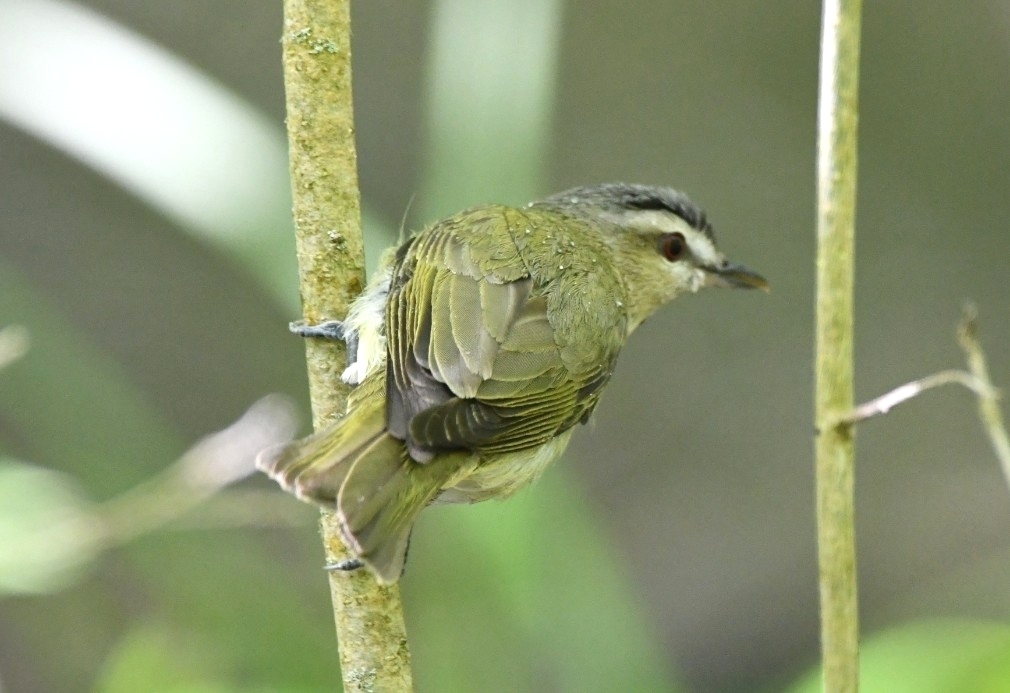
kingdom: Animalia
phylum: Chordata
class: Aves
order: Passeriformes
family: Vireonidae
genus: Vireo
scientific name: Vireo olivaceus
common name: Red-eyed vireo
